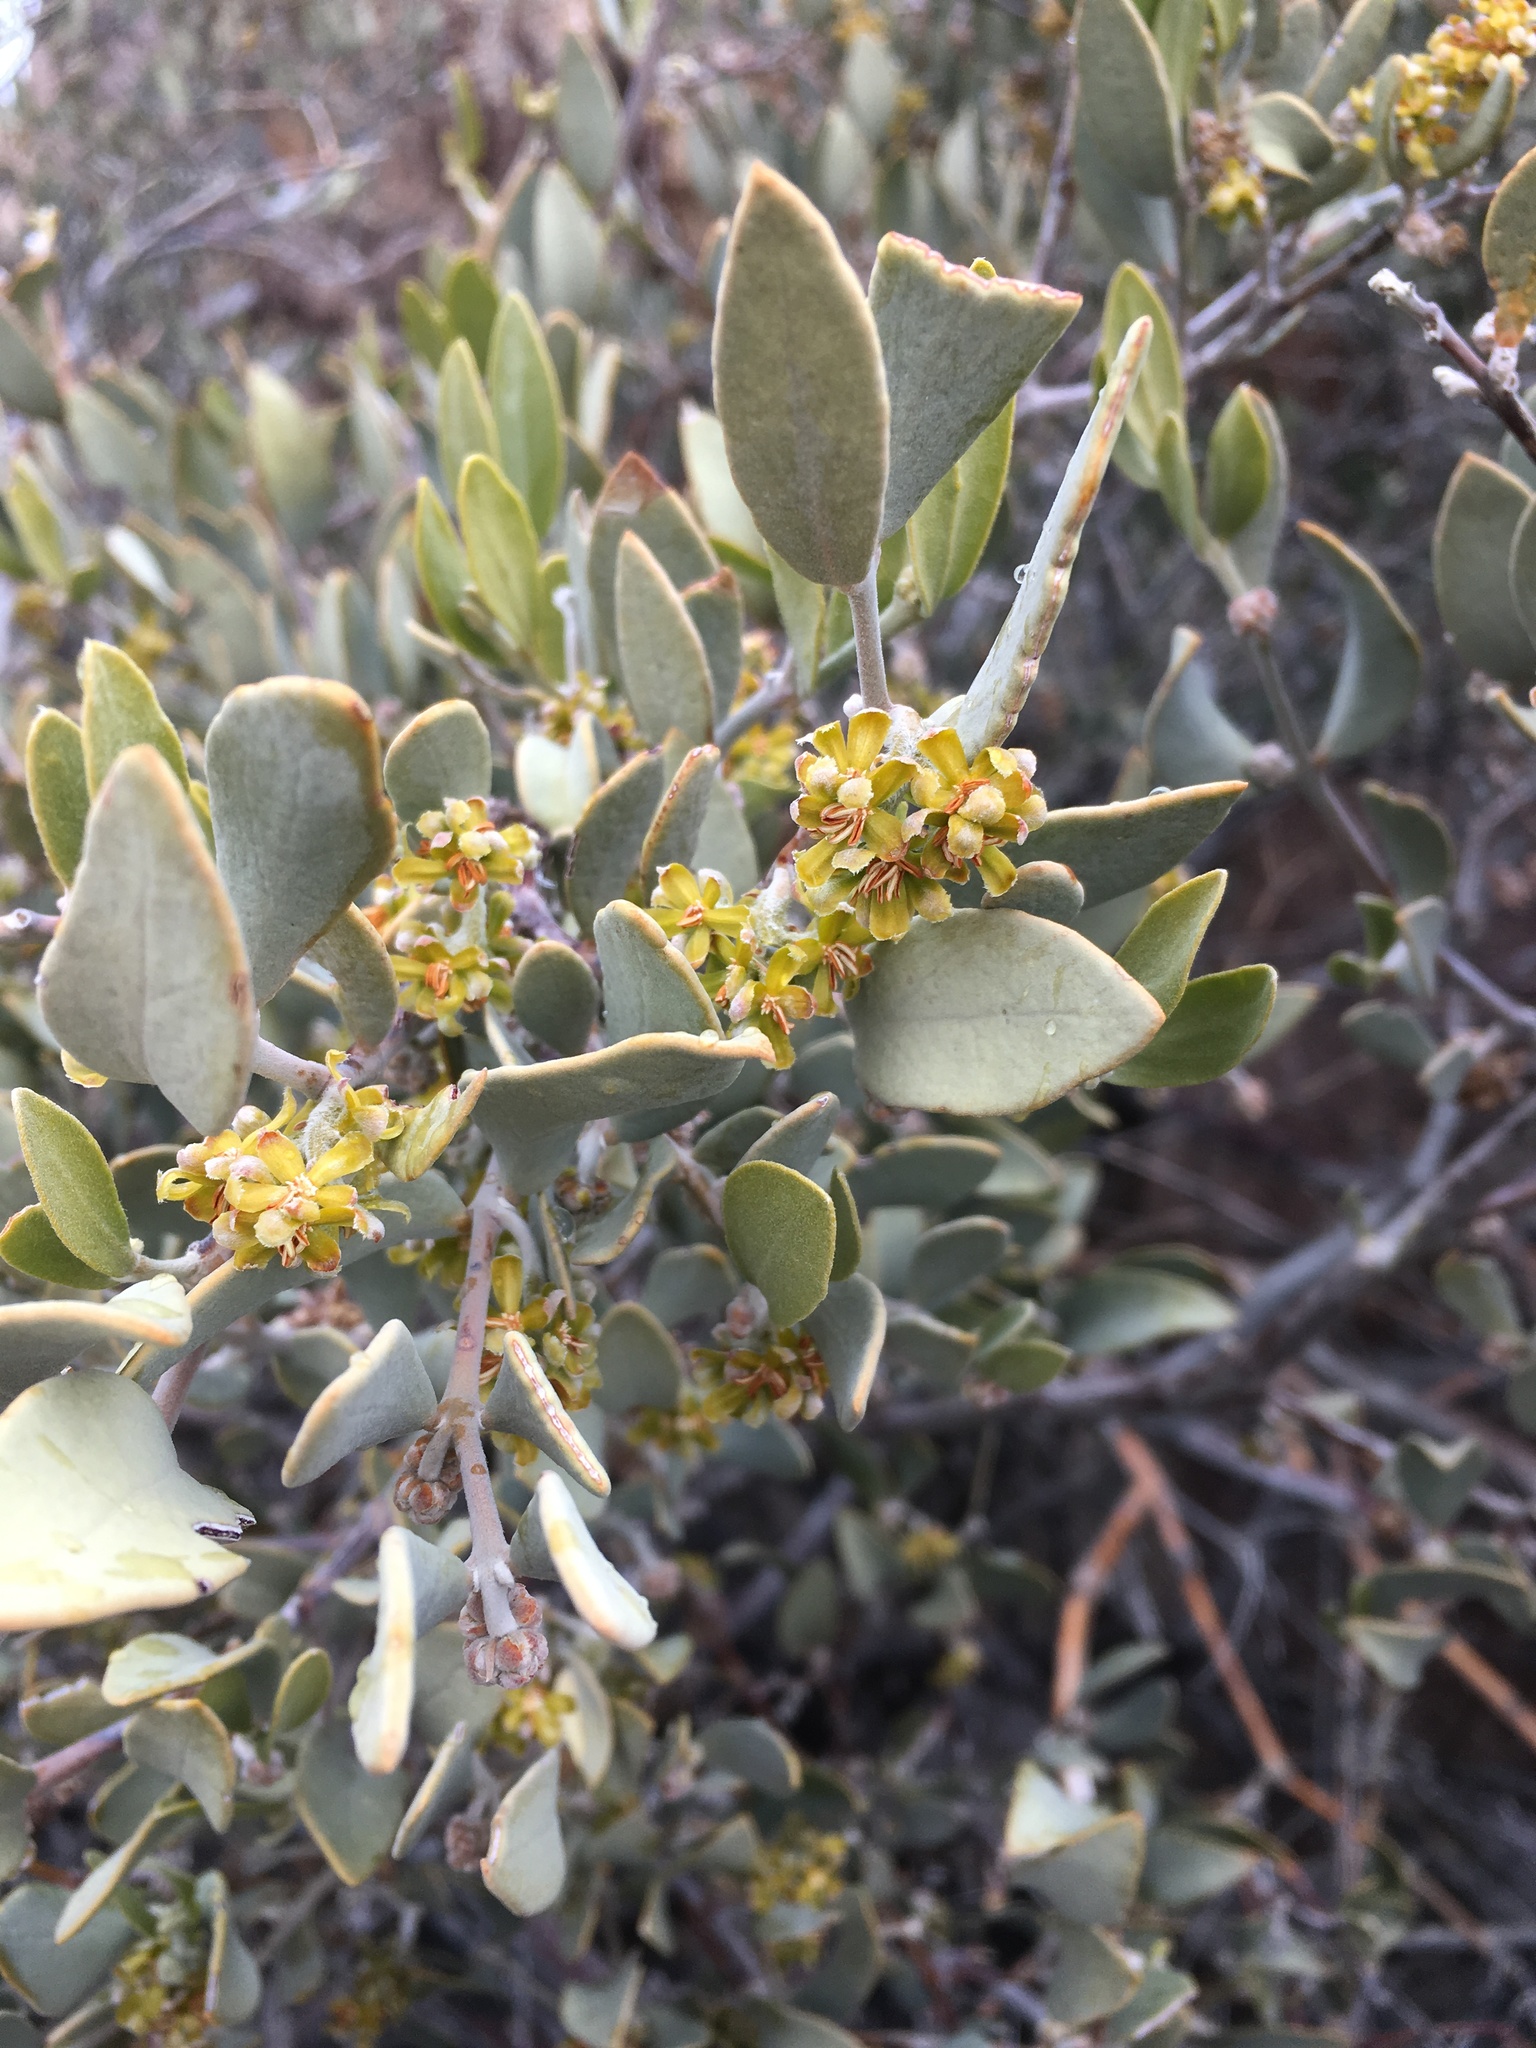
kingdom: Plantae
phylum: Tracheophyta
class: Magnoliopsida
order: Caryophyllales
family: Simmondsiaceae
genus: Simmondsia
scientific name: Simmondsia chinensis
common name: Jojoba
